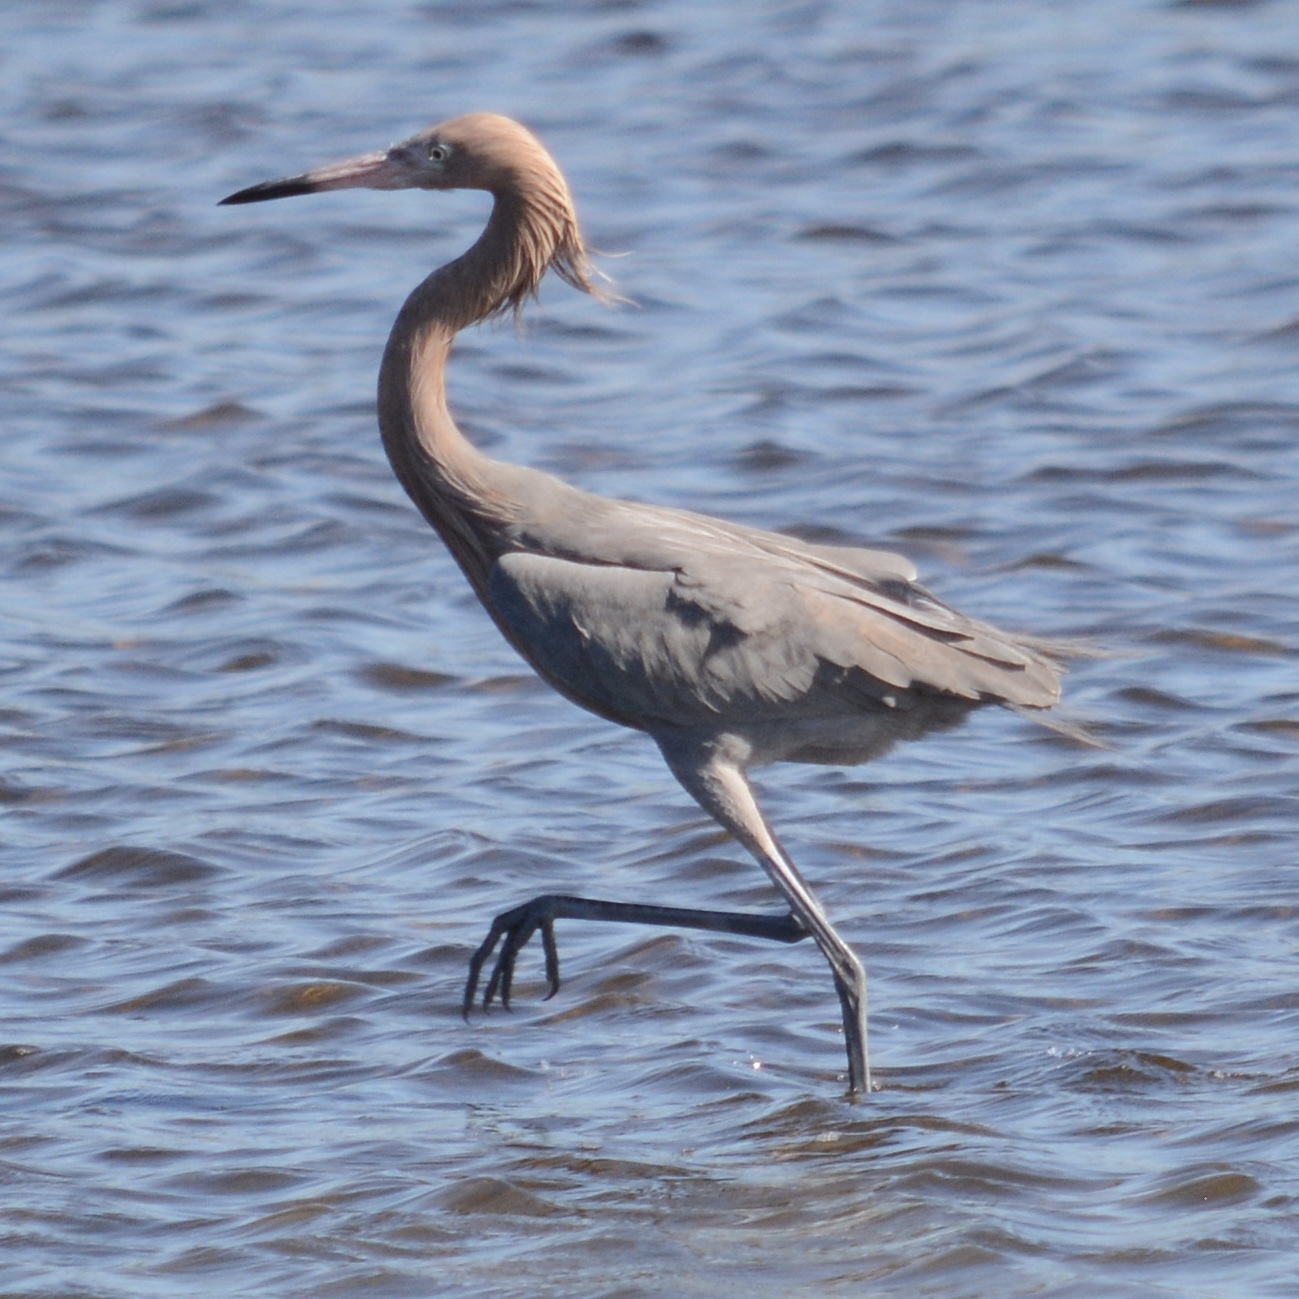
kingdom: Animalia
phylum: Chordata
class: Aves
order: Pelecaniformes
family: Ardeidae
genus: Egretta
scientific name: Egretta rufescens
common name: Reddish egret
